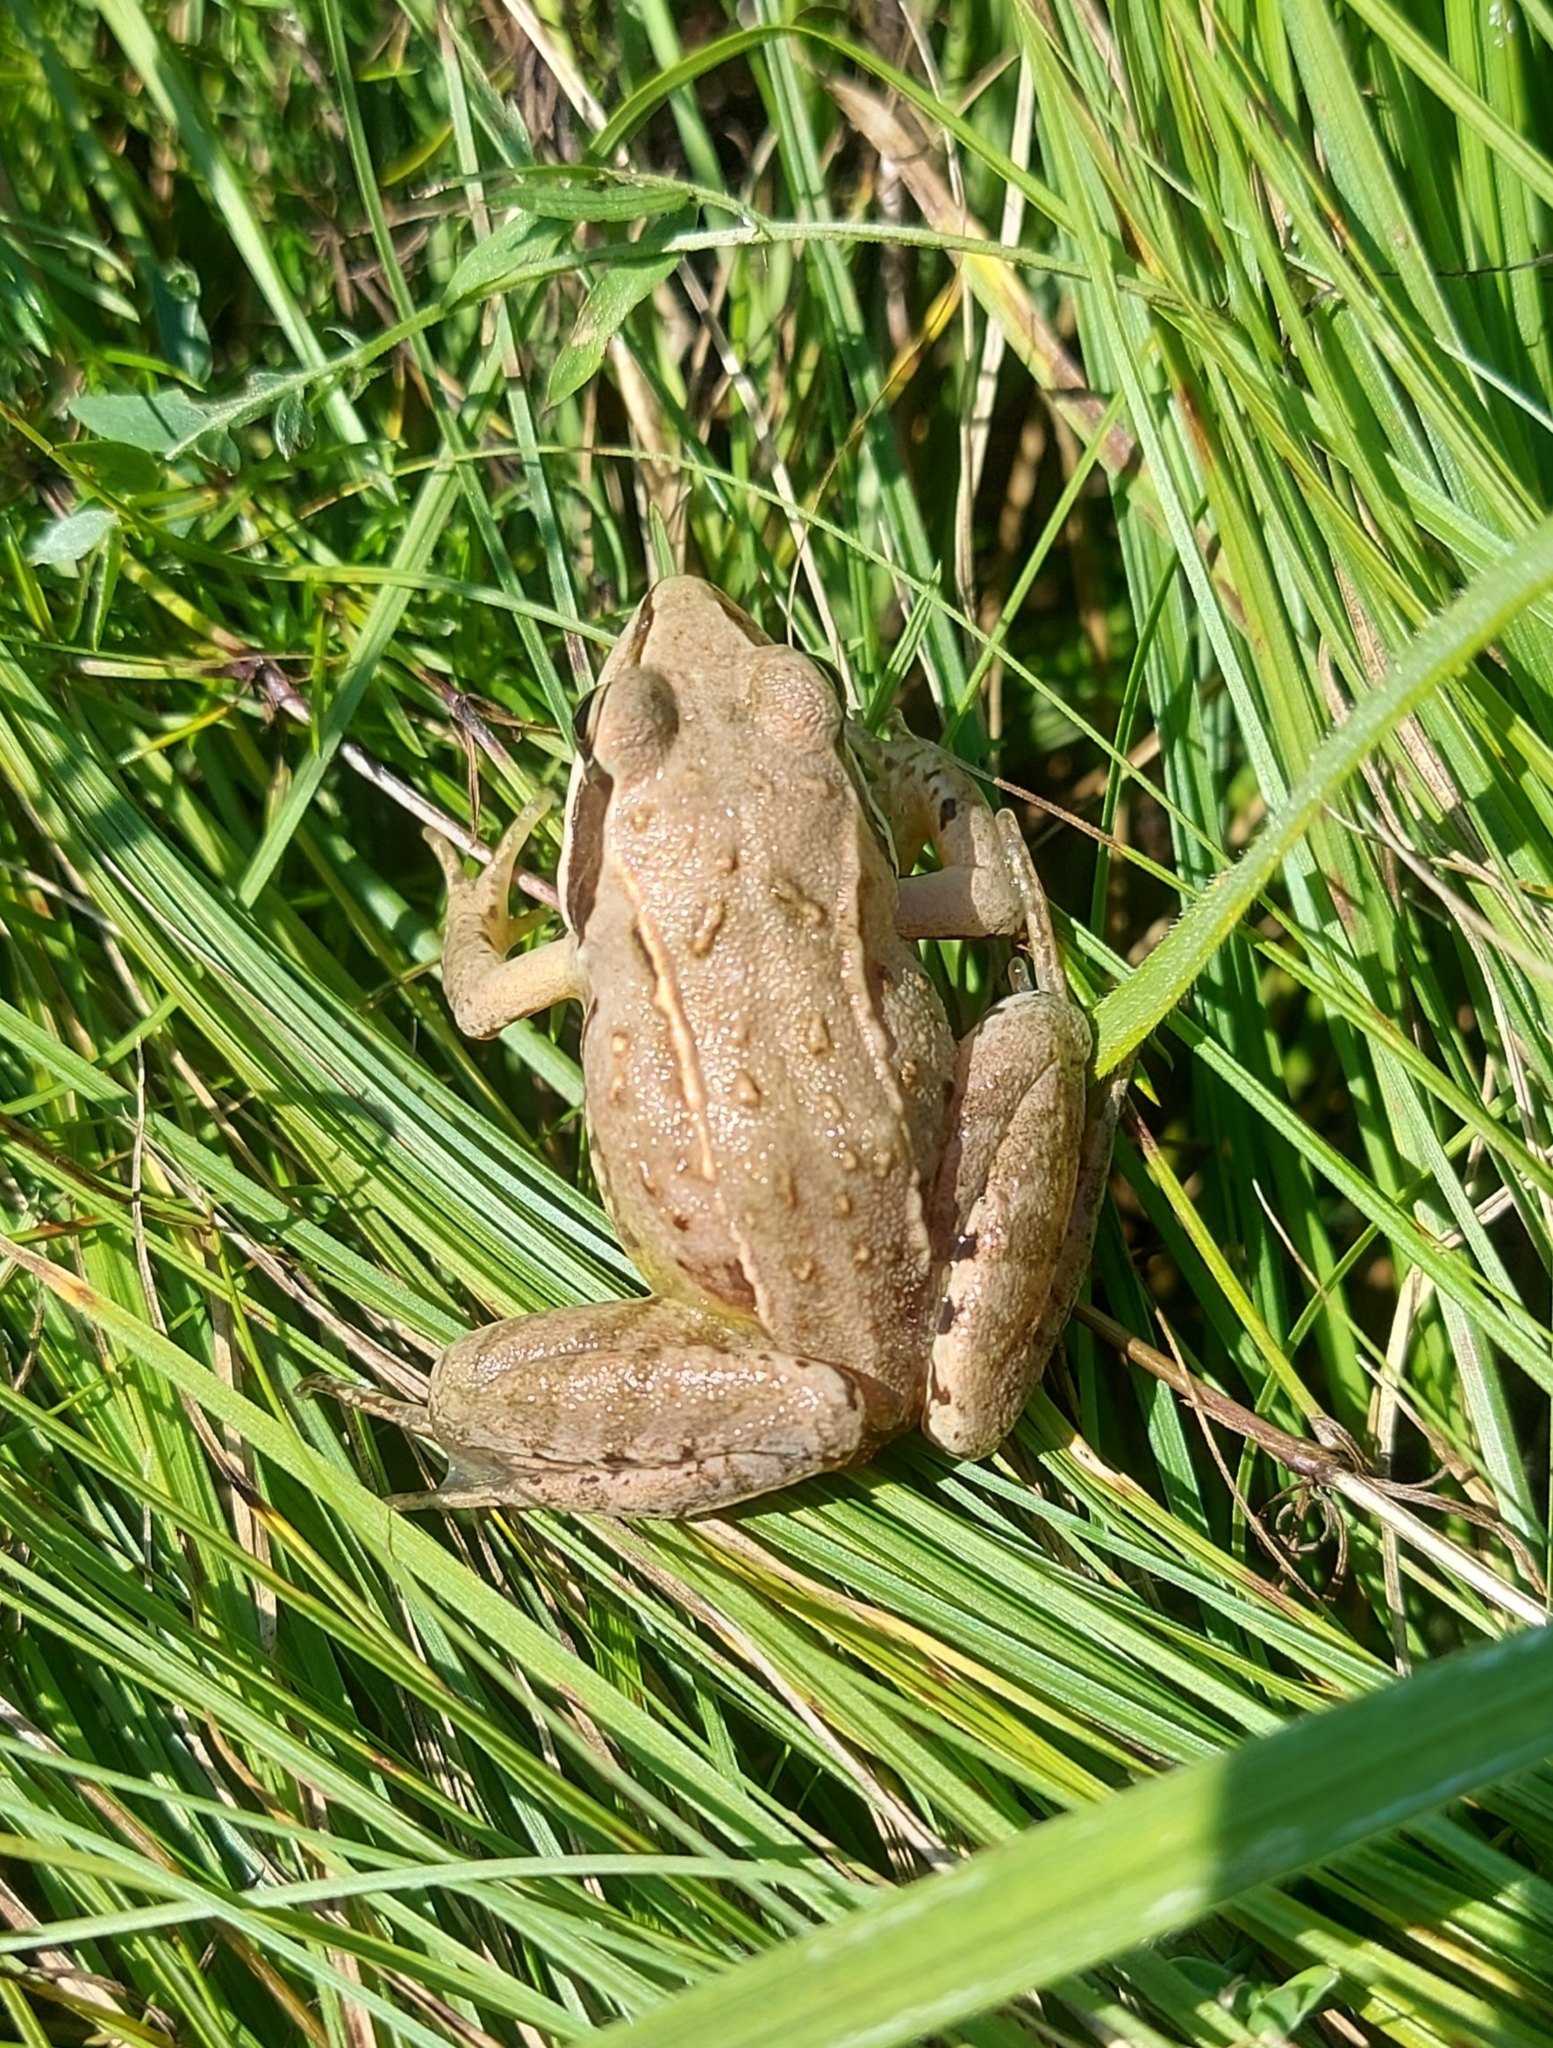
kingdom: Animalia
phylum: Chordata
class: Amphibia
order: Anura
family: Ranidae
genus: Rana
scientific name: Rana arvalis
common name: Moor frog
